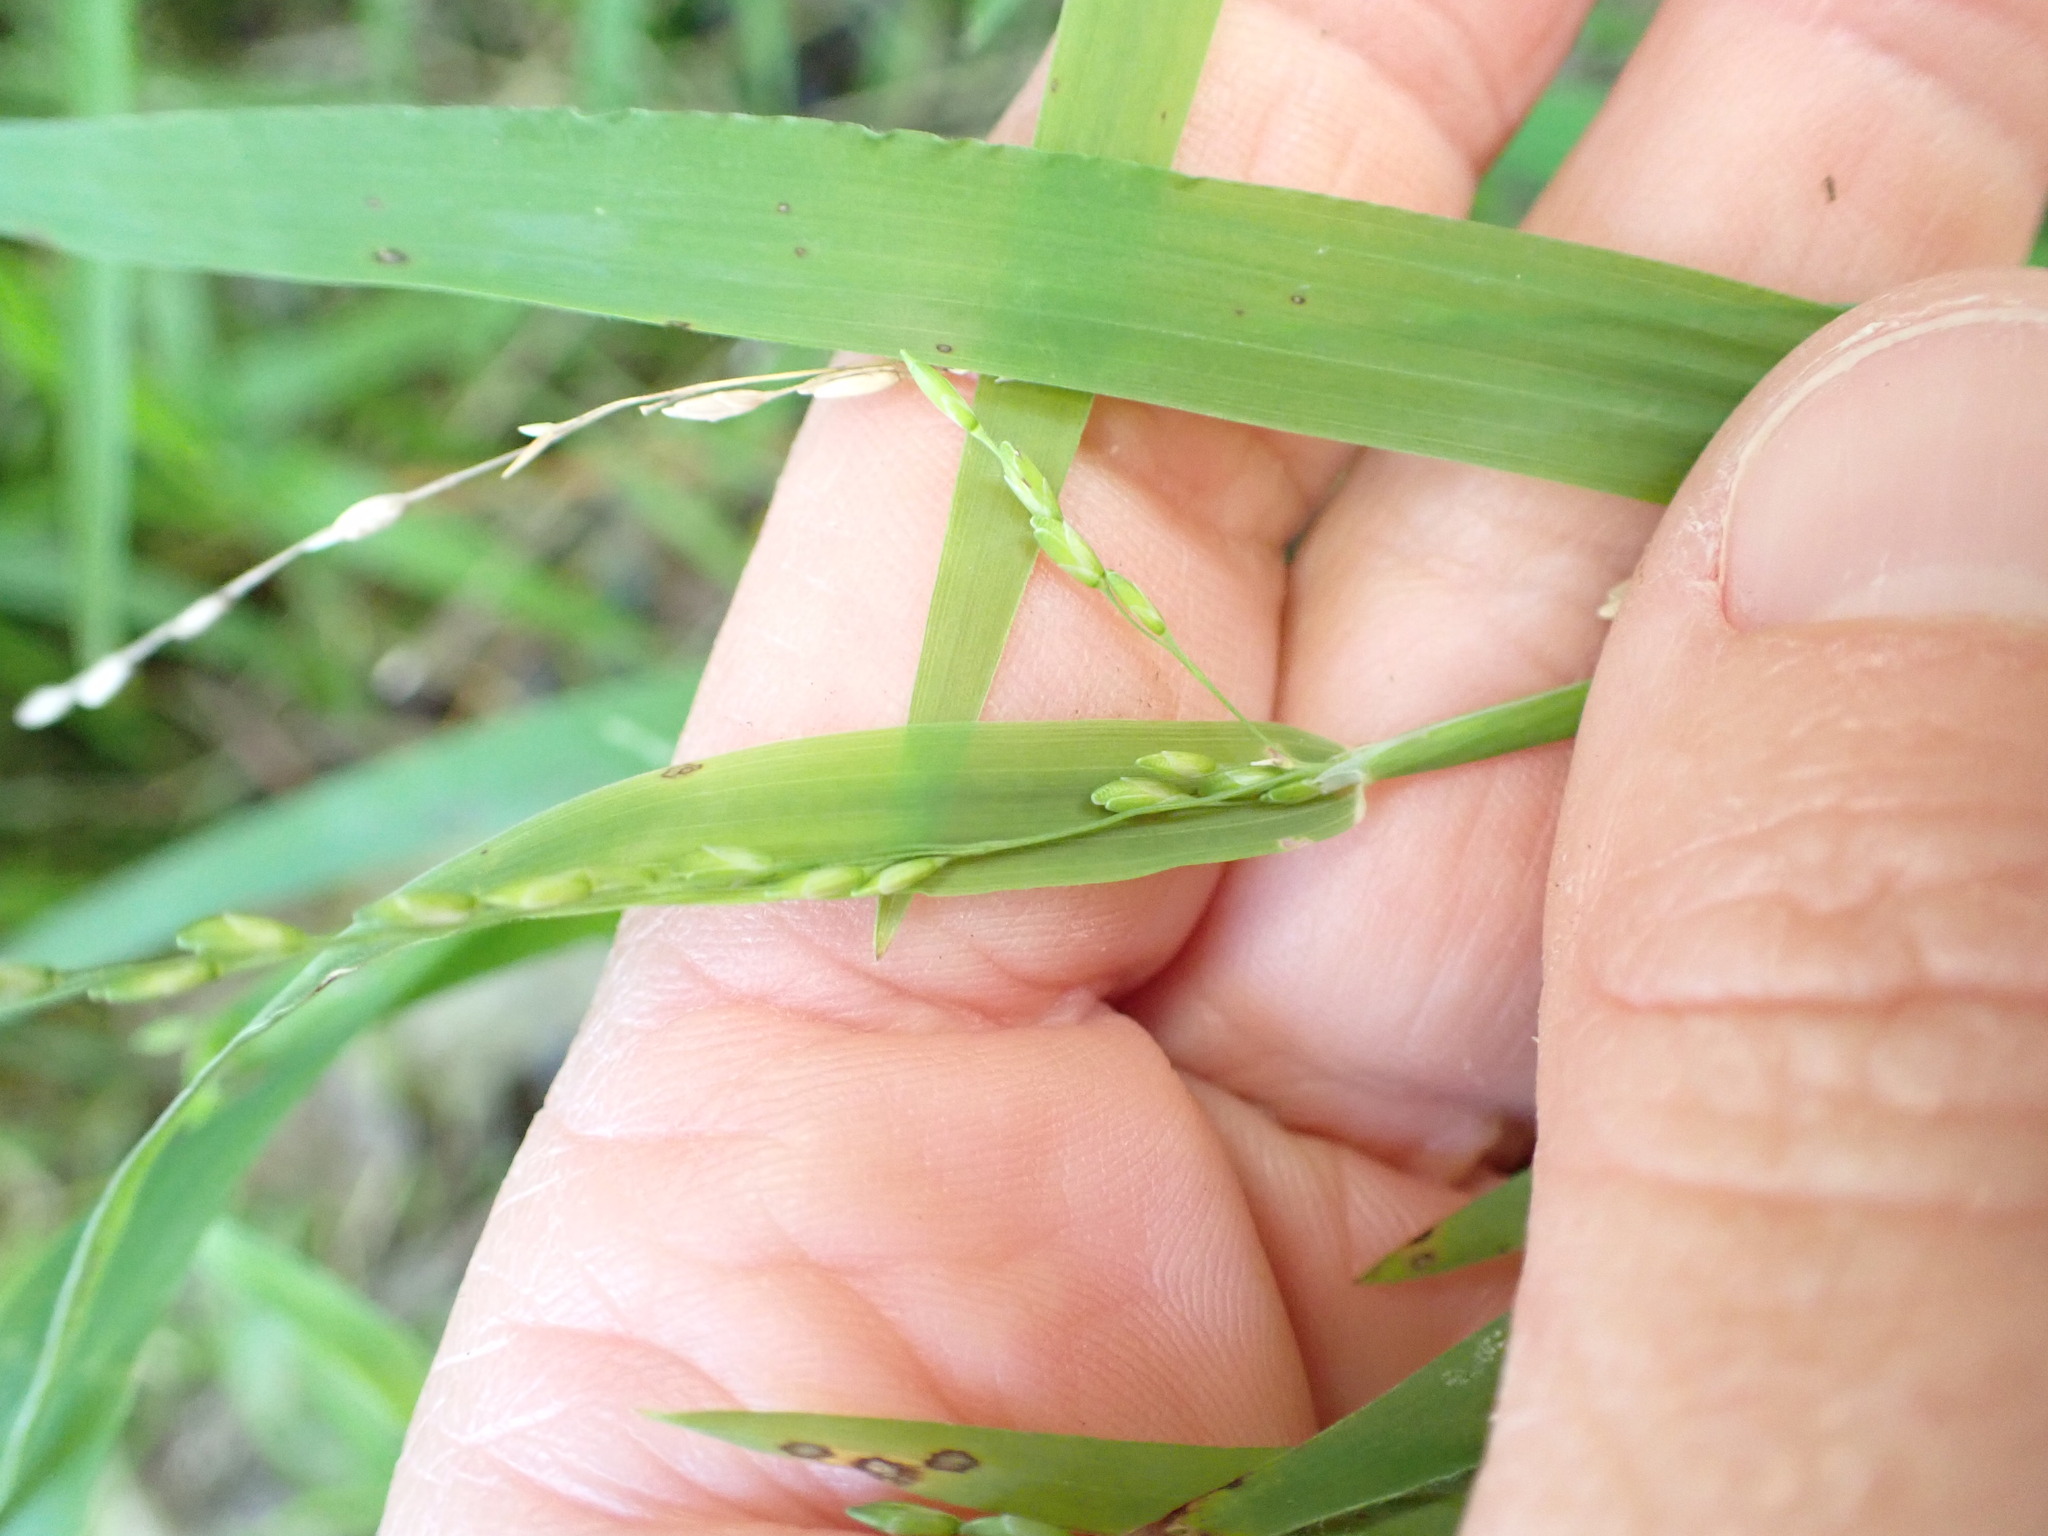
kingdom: Plantae
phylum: Tracheophyta
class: Liliopsida
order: Poales
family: Poaceae
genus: Ehrharta
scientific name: Ehrharta erecta
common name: Panic veldtgrass
